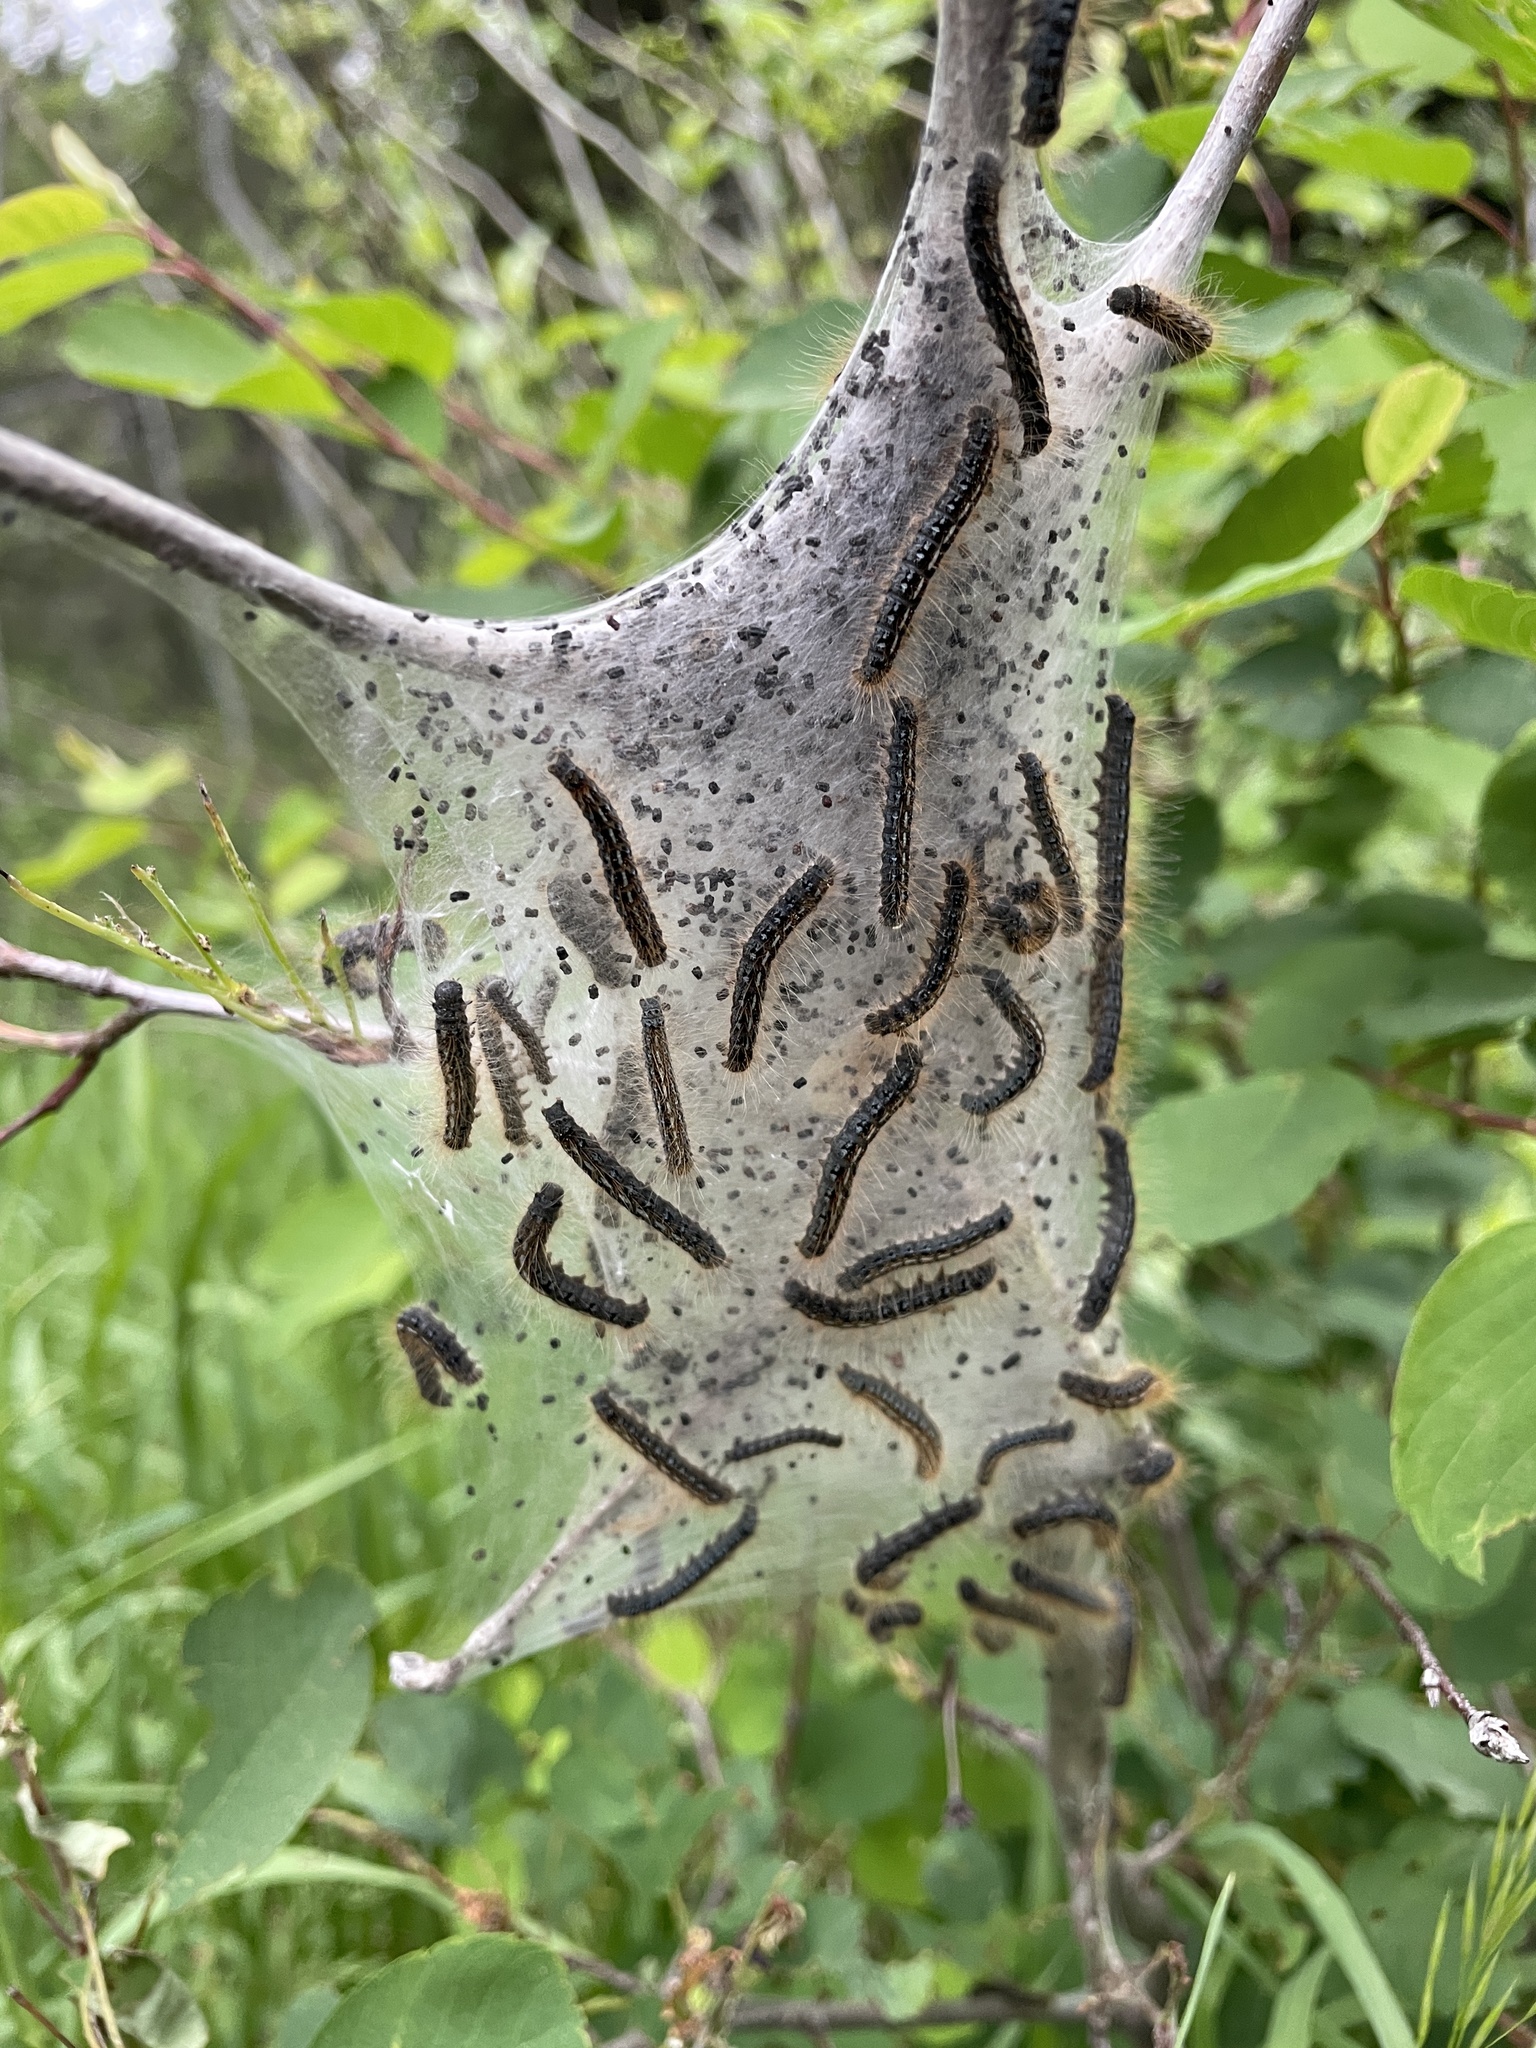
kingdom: Animalia
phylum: Arthropoda
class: Insecta
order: Lepidoptera
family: Lasiocampidae
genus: Malacosoma
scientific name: Malacosoma californica
